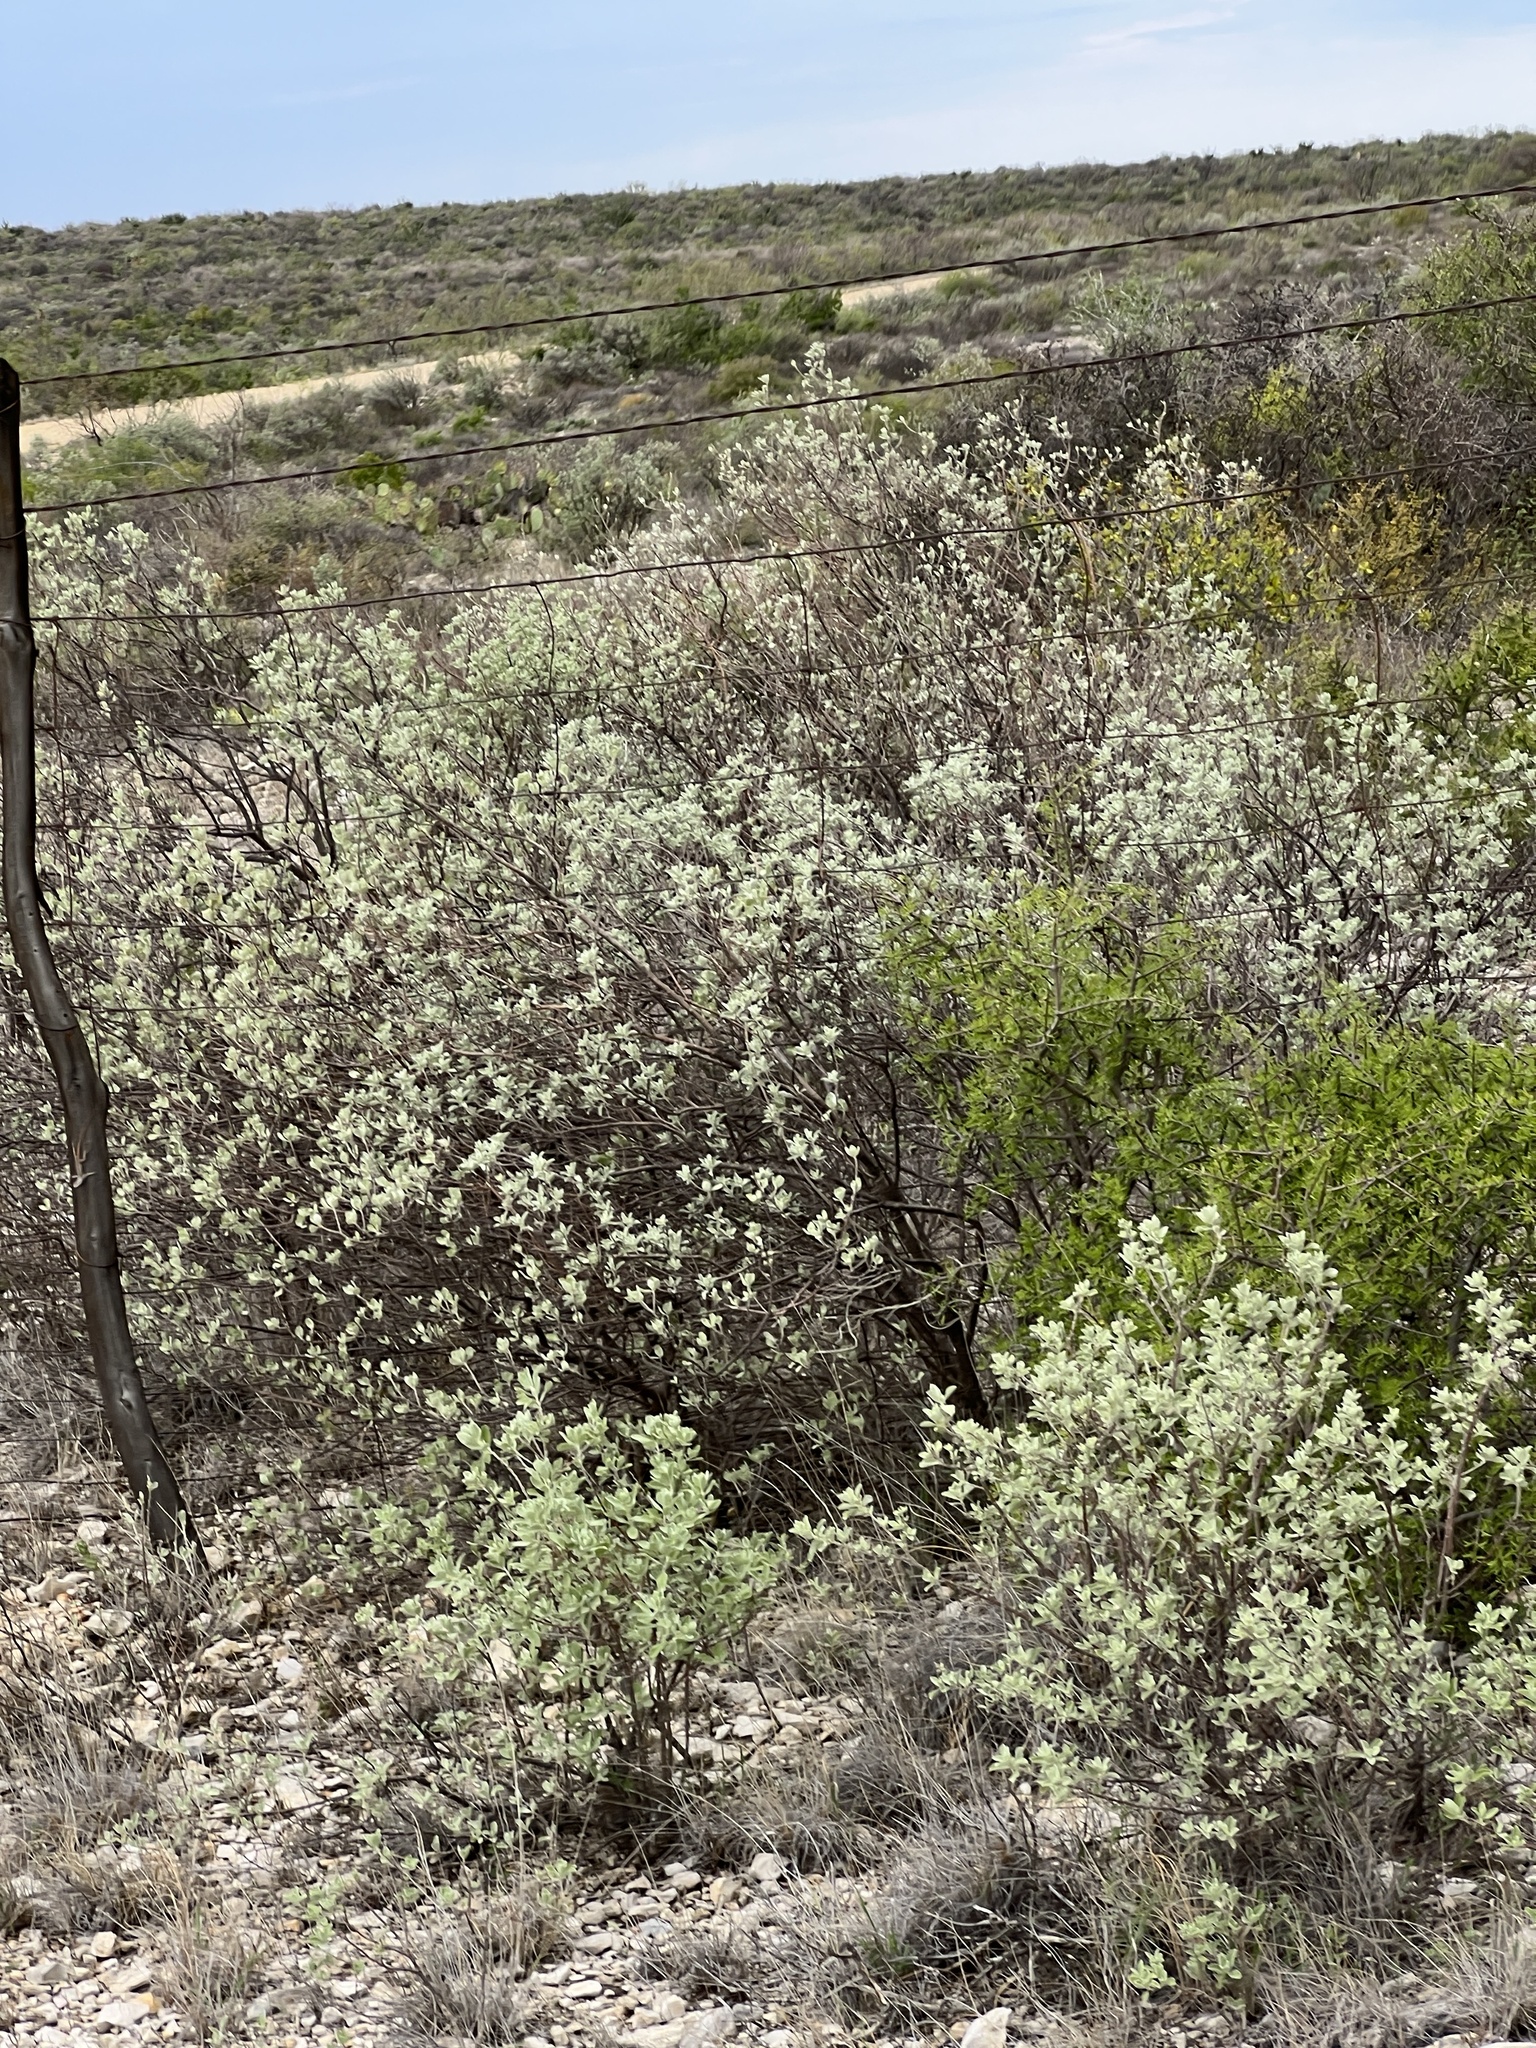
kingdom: Plantae
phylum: Tracheophyta
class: Magnoliopsida
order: Lamiales
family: Scrophulariaceae
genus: Leucophyllum
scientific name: Leucophyllum frutescens
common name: Texas silverleaf
